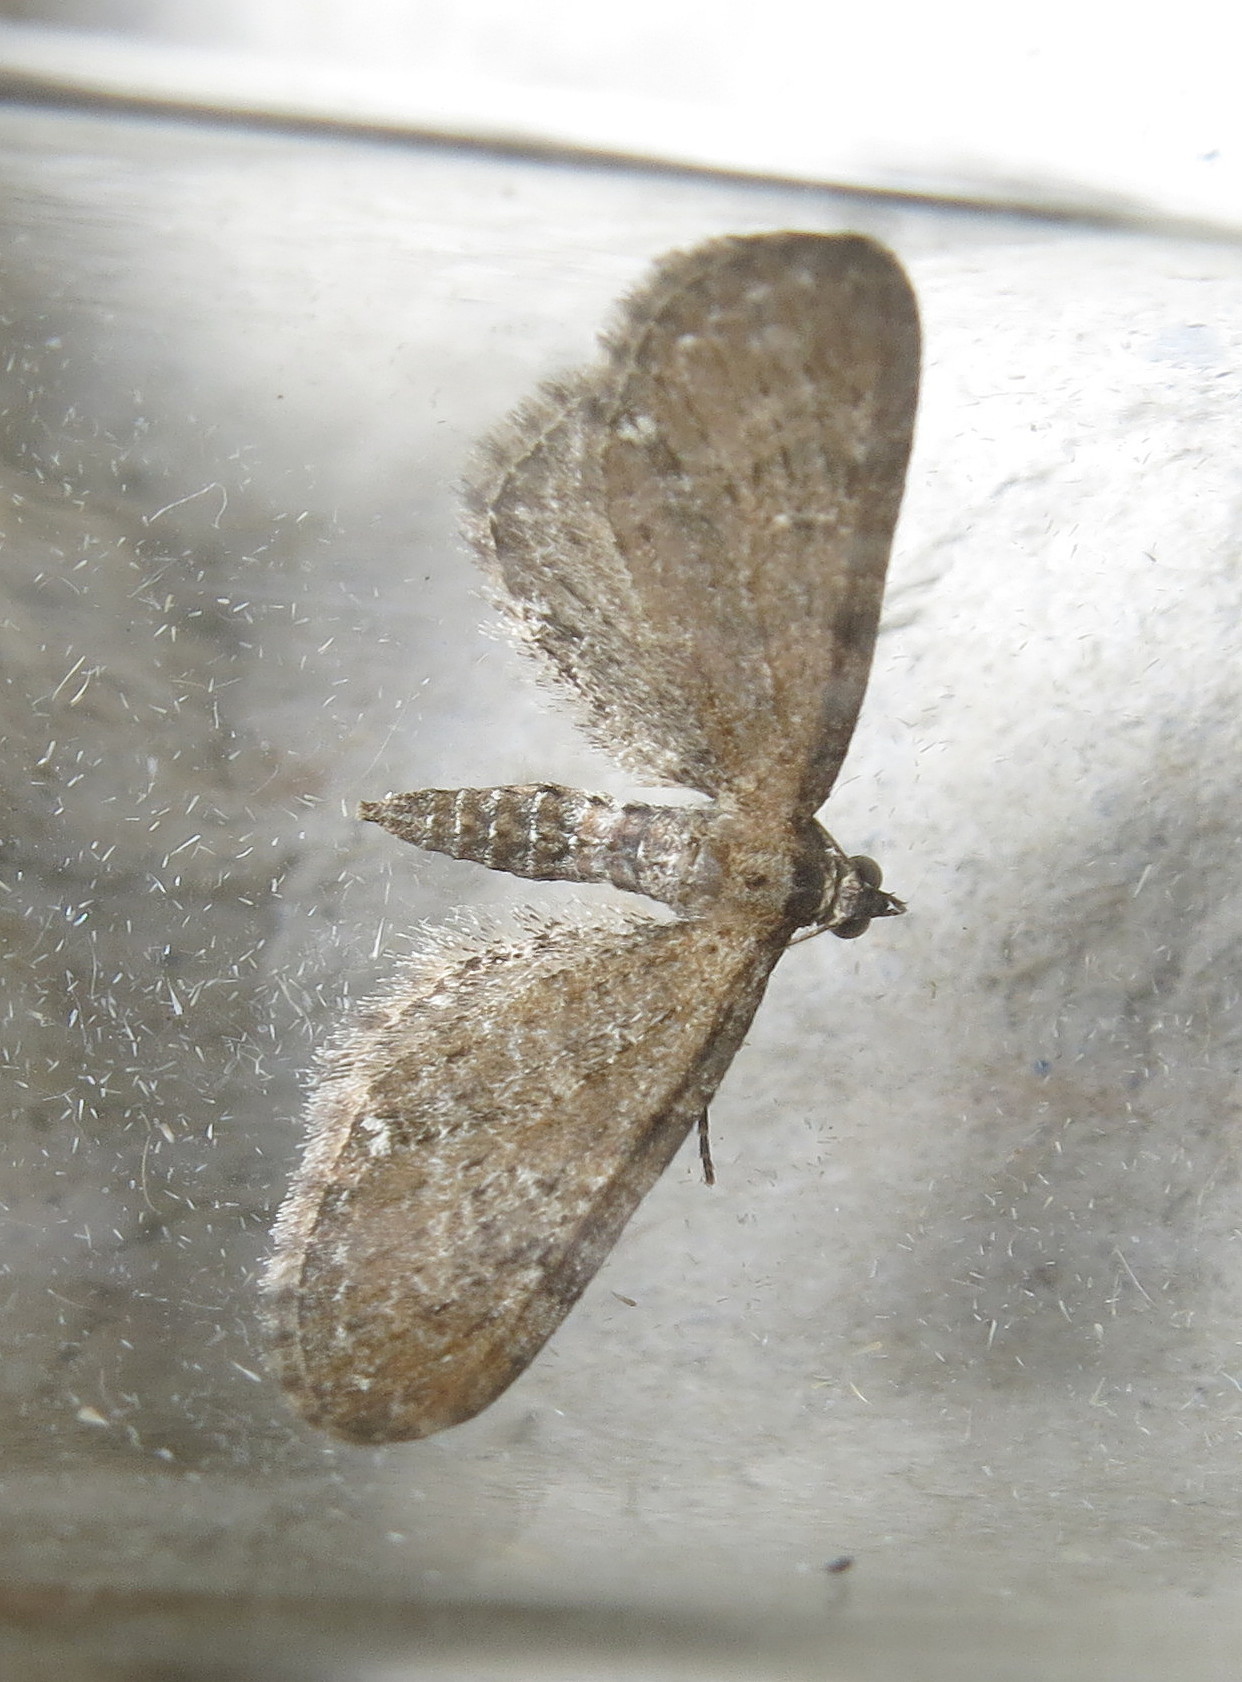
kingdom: Animalia
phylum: Arthropoda
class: Insecta
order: Lepidoptera
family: Geometridae
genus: Eupithecia
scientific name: Eupithecia vulgata
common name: Common pug
